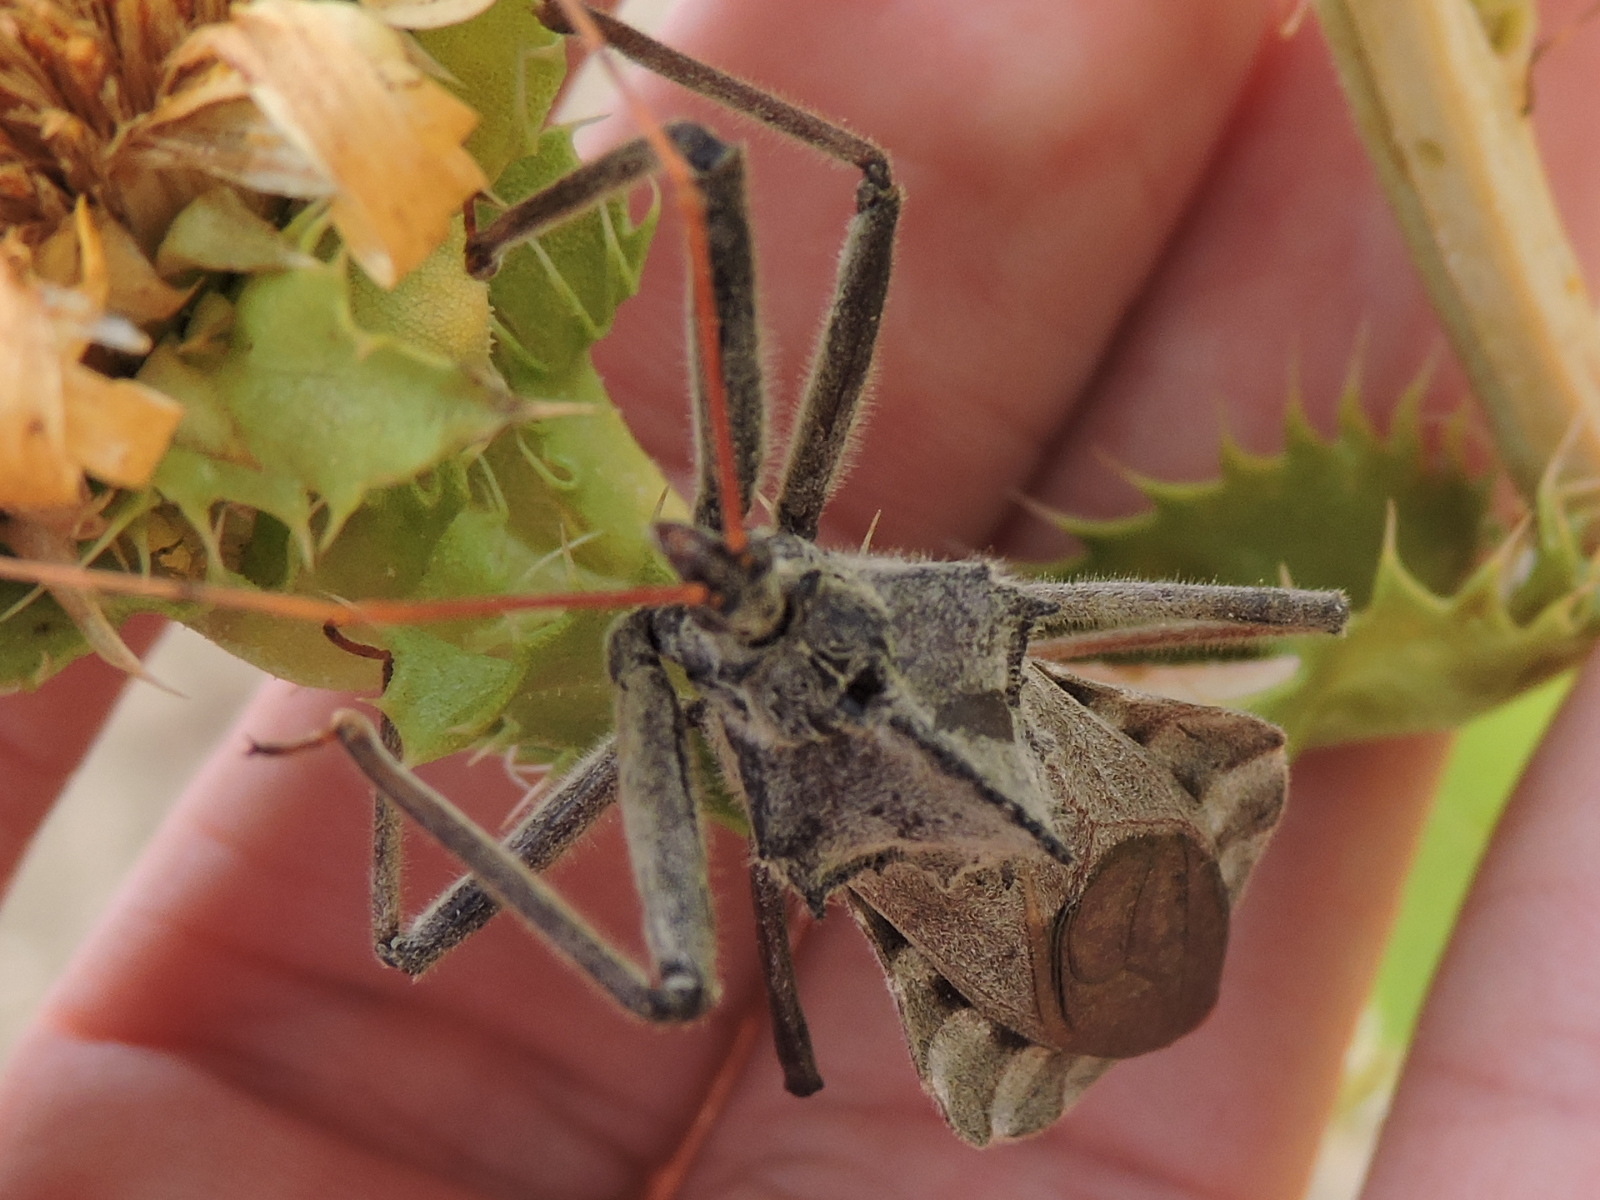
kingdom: Animalia
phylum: Arthropoda
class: Insecta
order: Hemiptera
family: Reduviidae
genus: Arilus
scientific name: Arilus cristatus
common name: North american wheel bug
